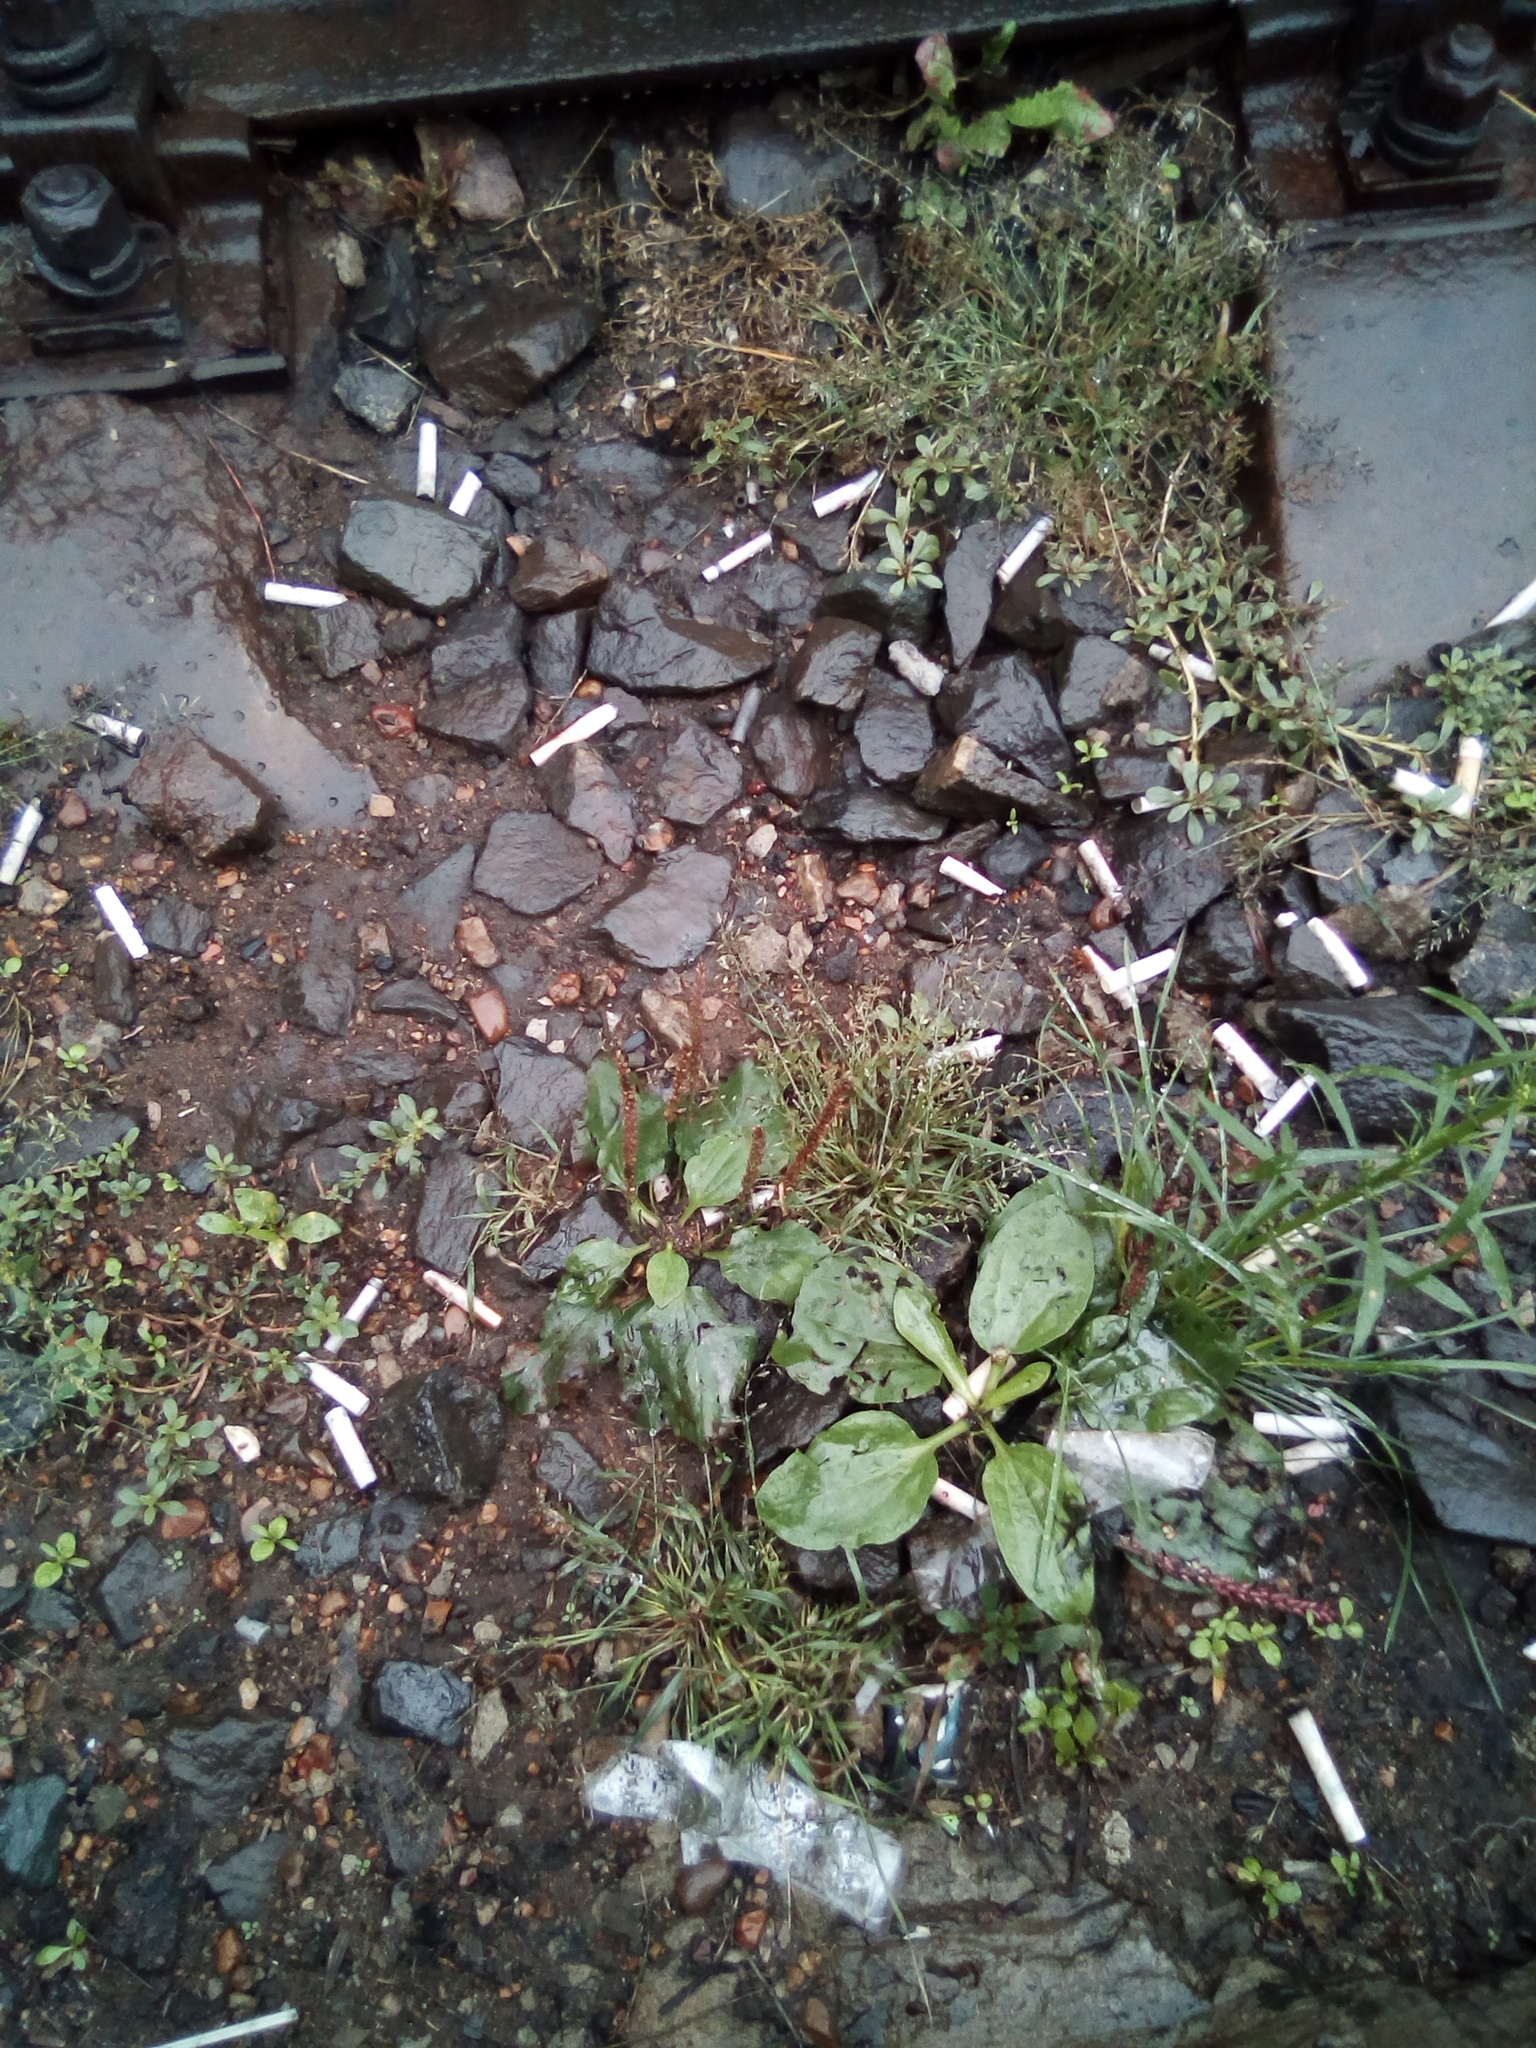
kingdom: Plantae
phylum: Tracheophyta
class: Magnoliopsida
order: Lamiales
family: Plantaginaceae
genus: Plantago
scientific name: Plantago major
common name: Common plantain
